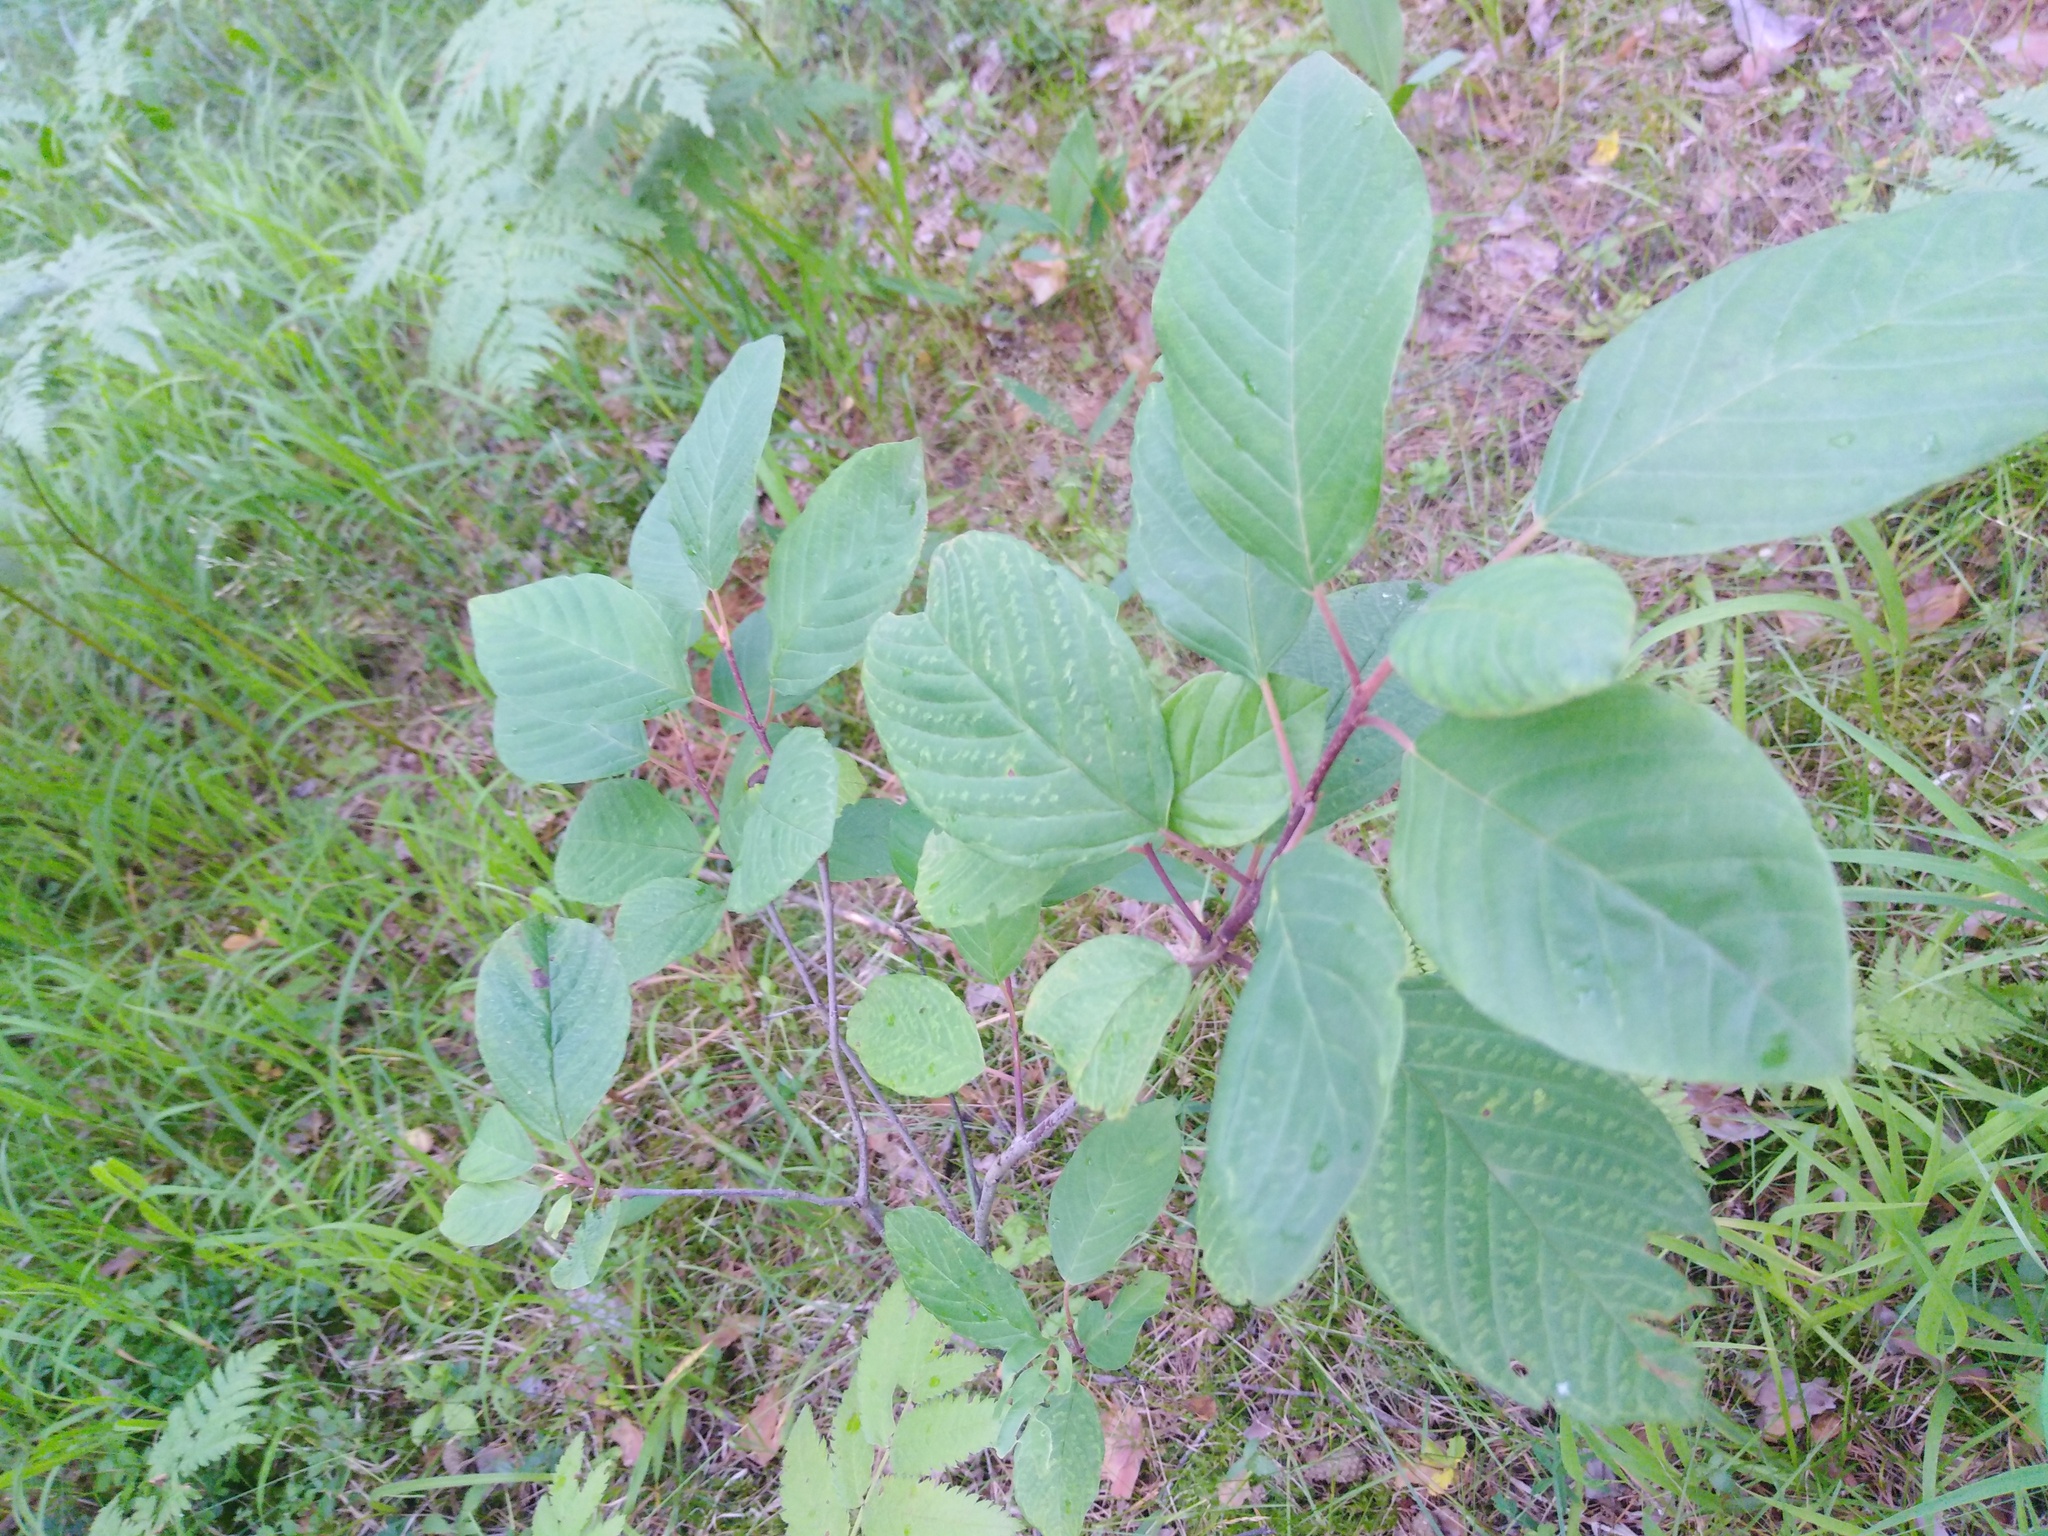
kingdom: Plantae
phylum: Tracheophyta
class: Magnoliopsida
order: Rosales
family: Rhamnaceae
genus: Frangula
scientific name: Frangula alnus
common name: Alder buckthorn
